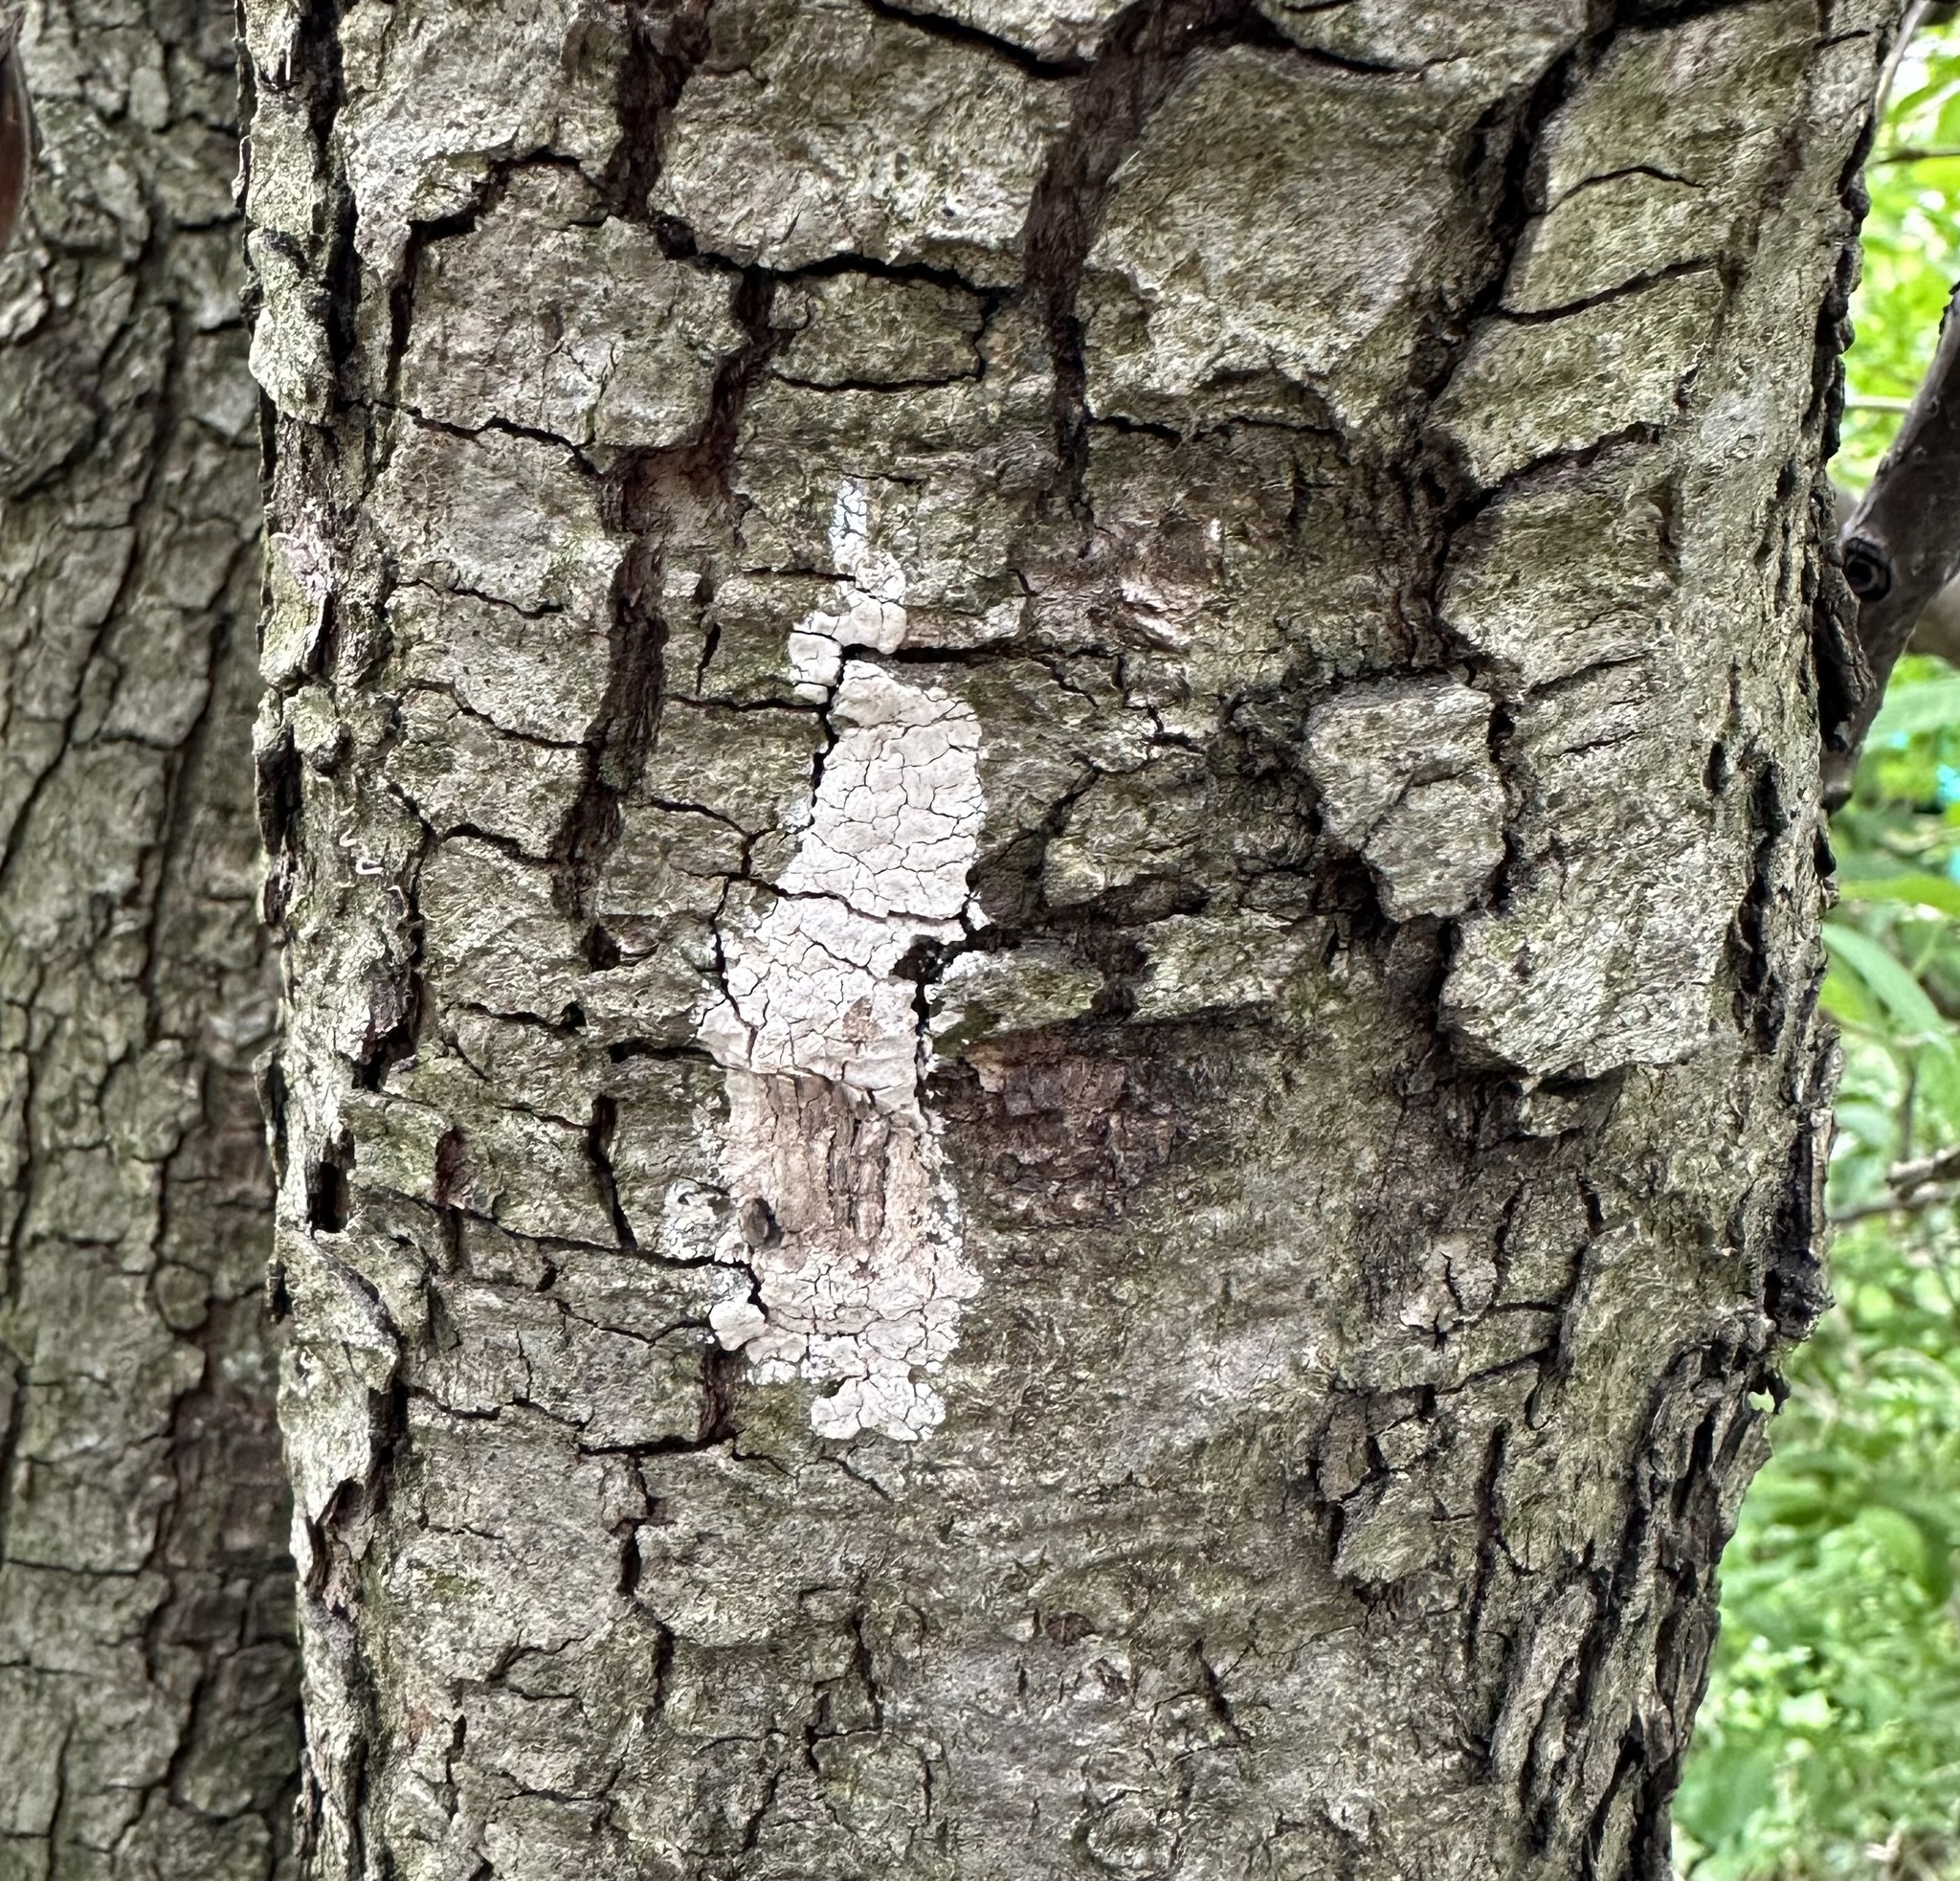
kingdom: Animalia
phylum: Arthropoda
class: Insecta
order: Hemiptera
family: Fulgoridae
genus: Lycorma
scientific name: Lycorma delicatula
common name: Spotted lanternfly
